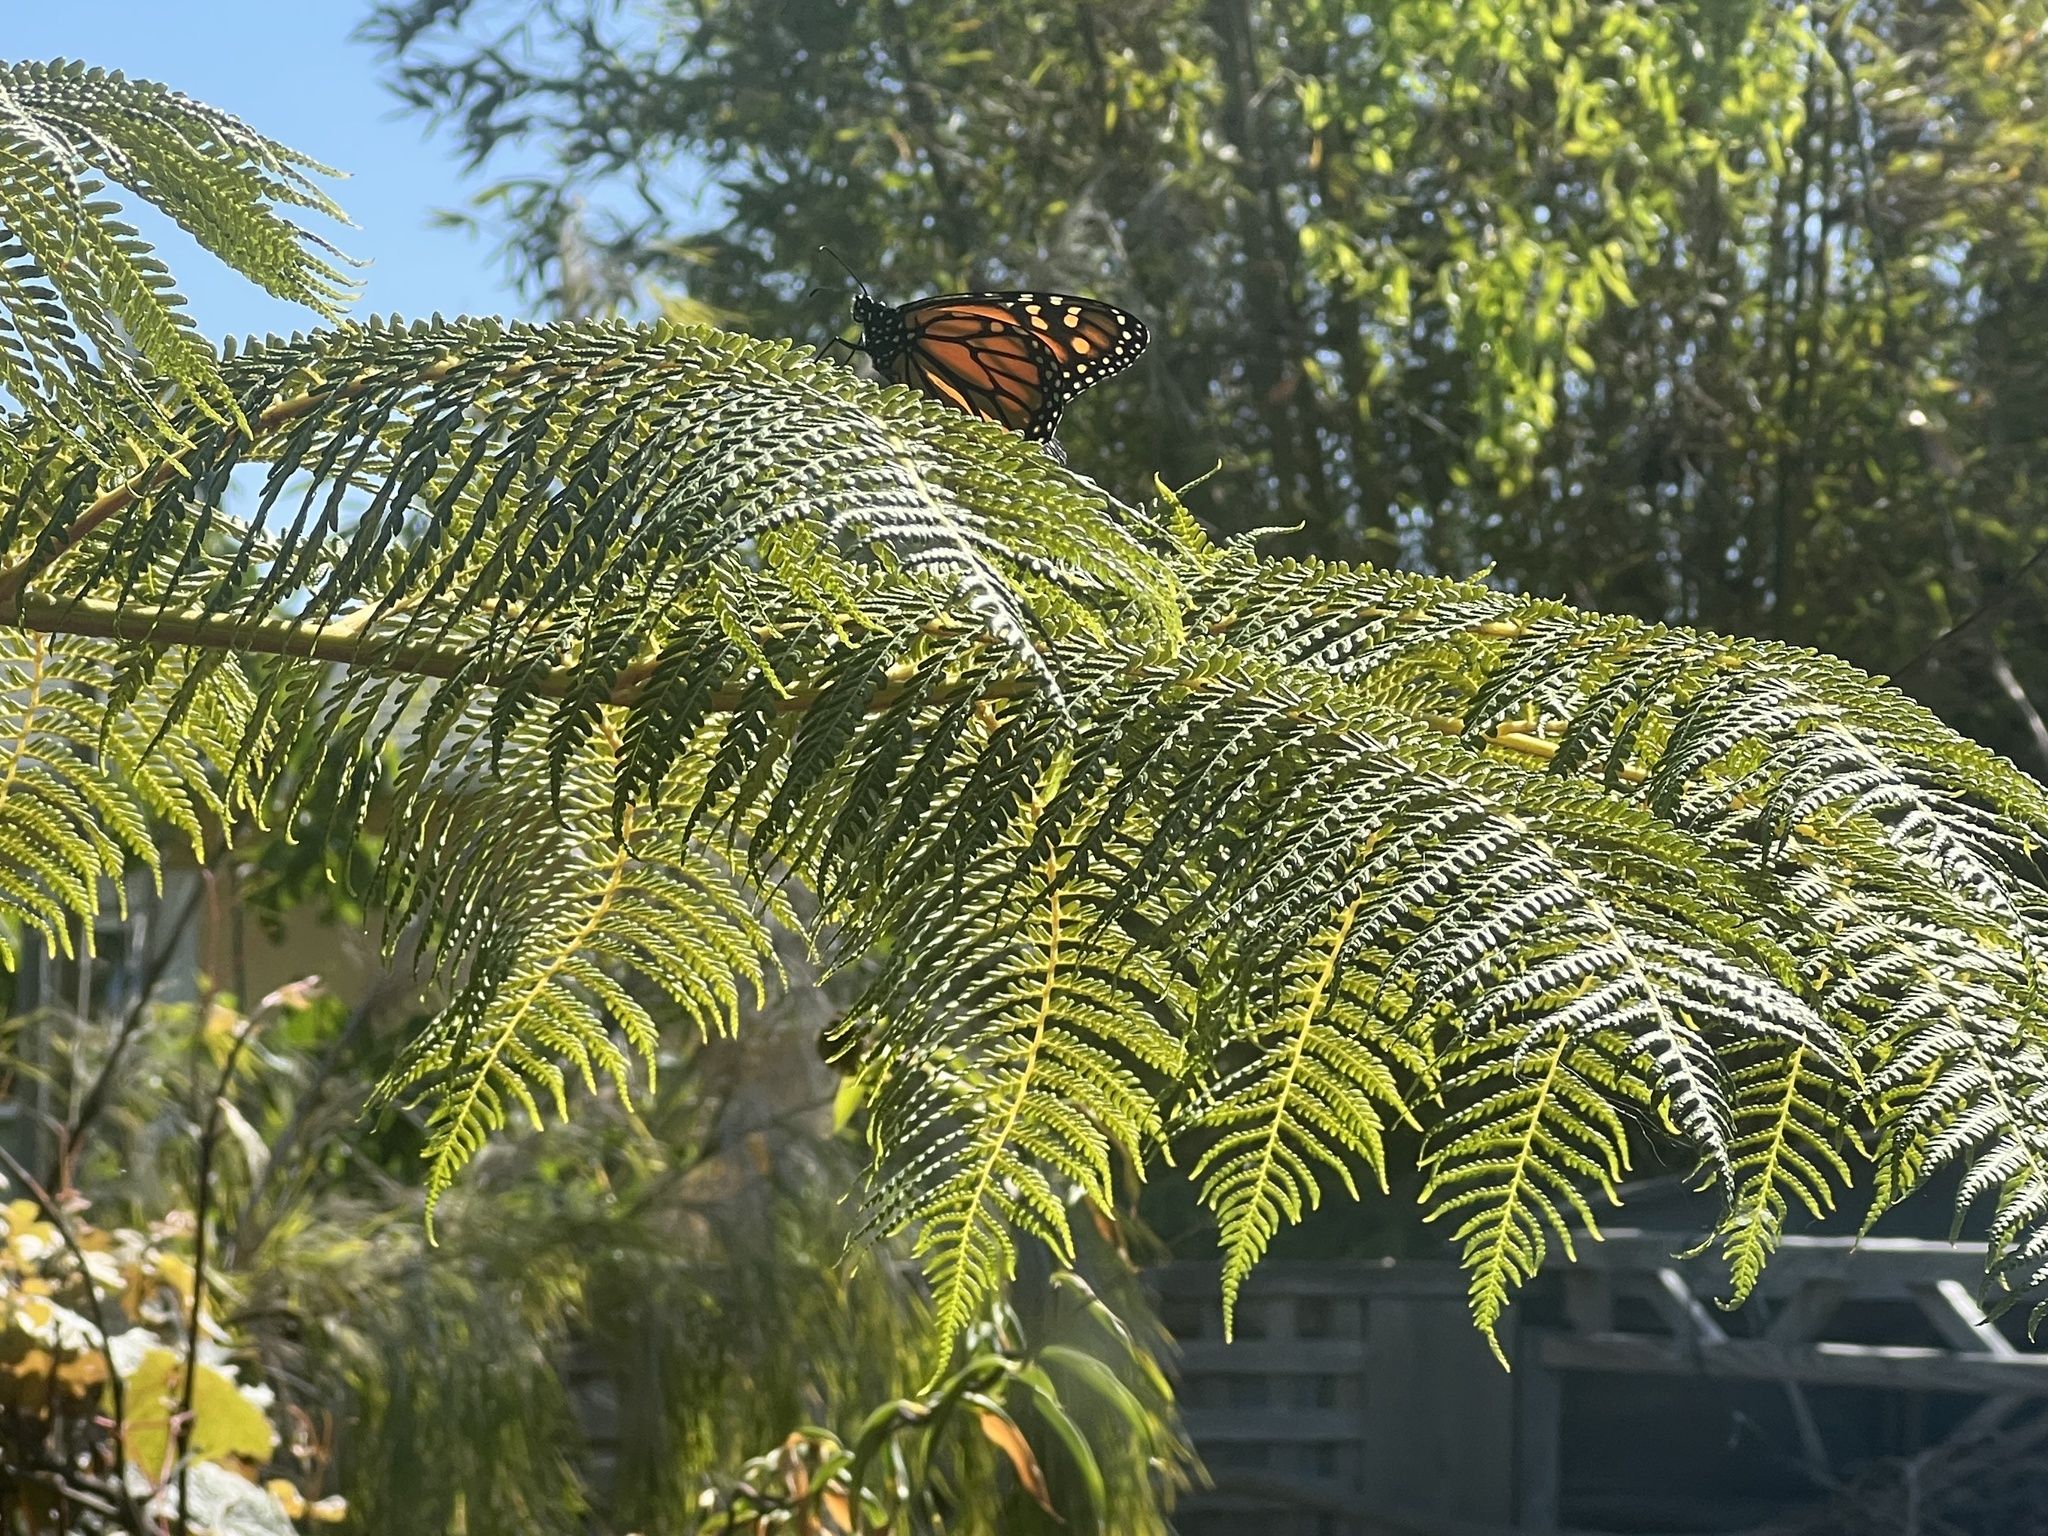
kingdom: Animalia
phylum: Arthropoda
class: Insecta
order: Lepidoptera
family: Nymphalidae
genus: Danaus
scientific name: Danaus plexippus
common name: Monarch
